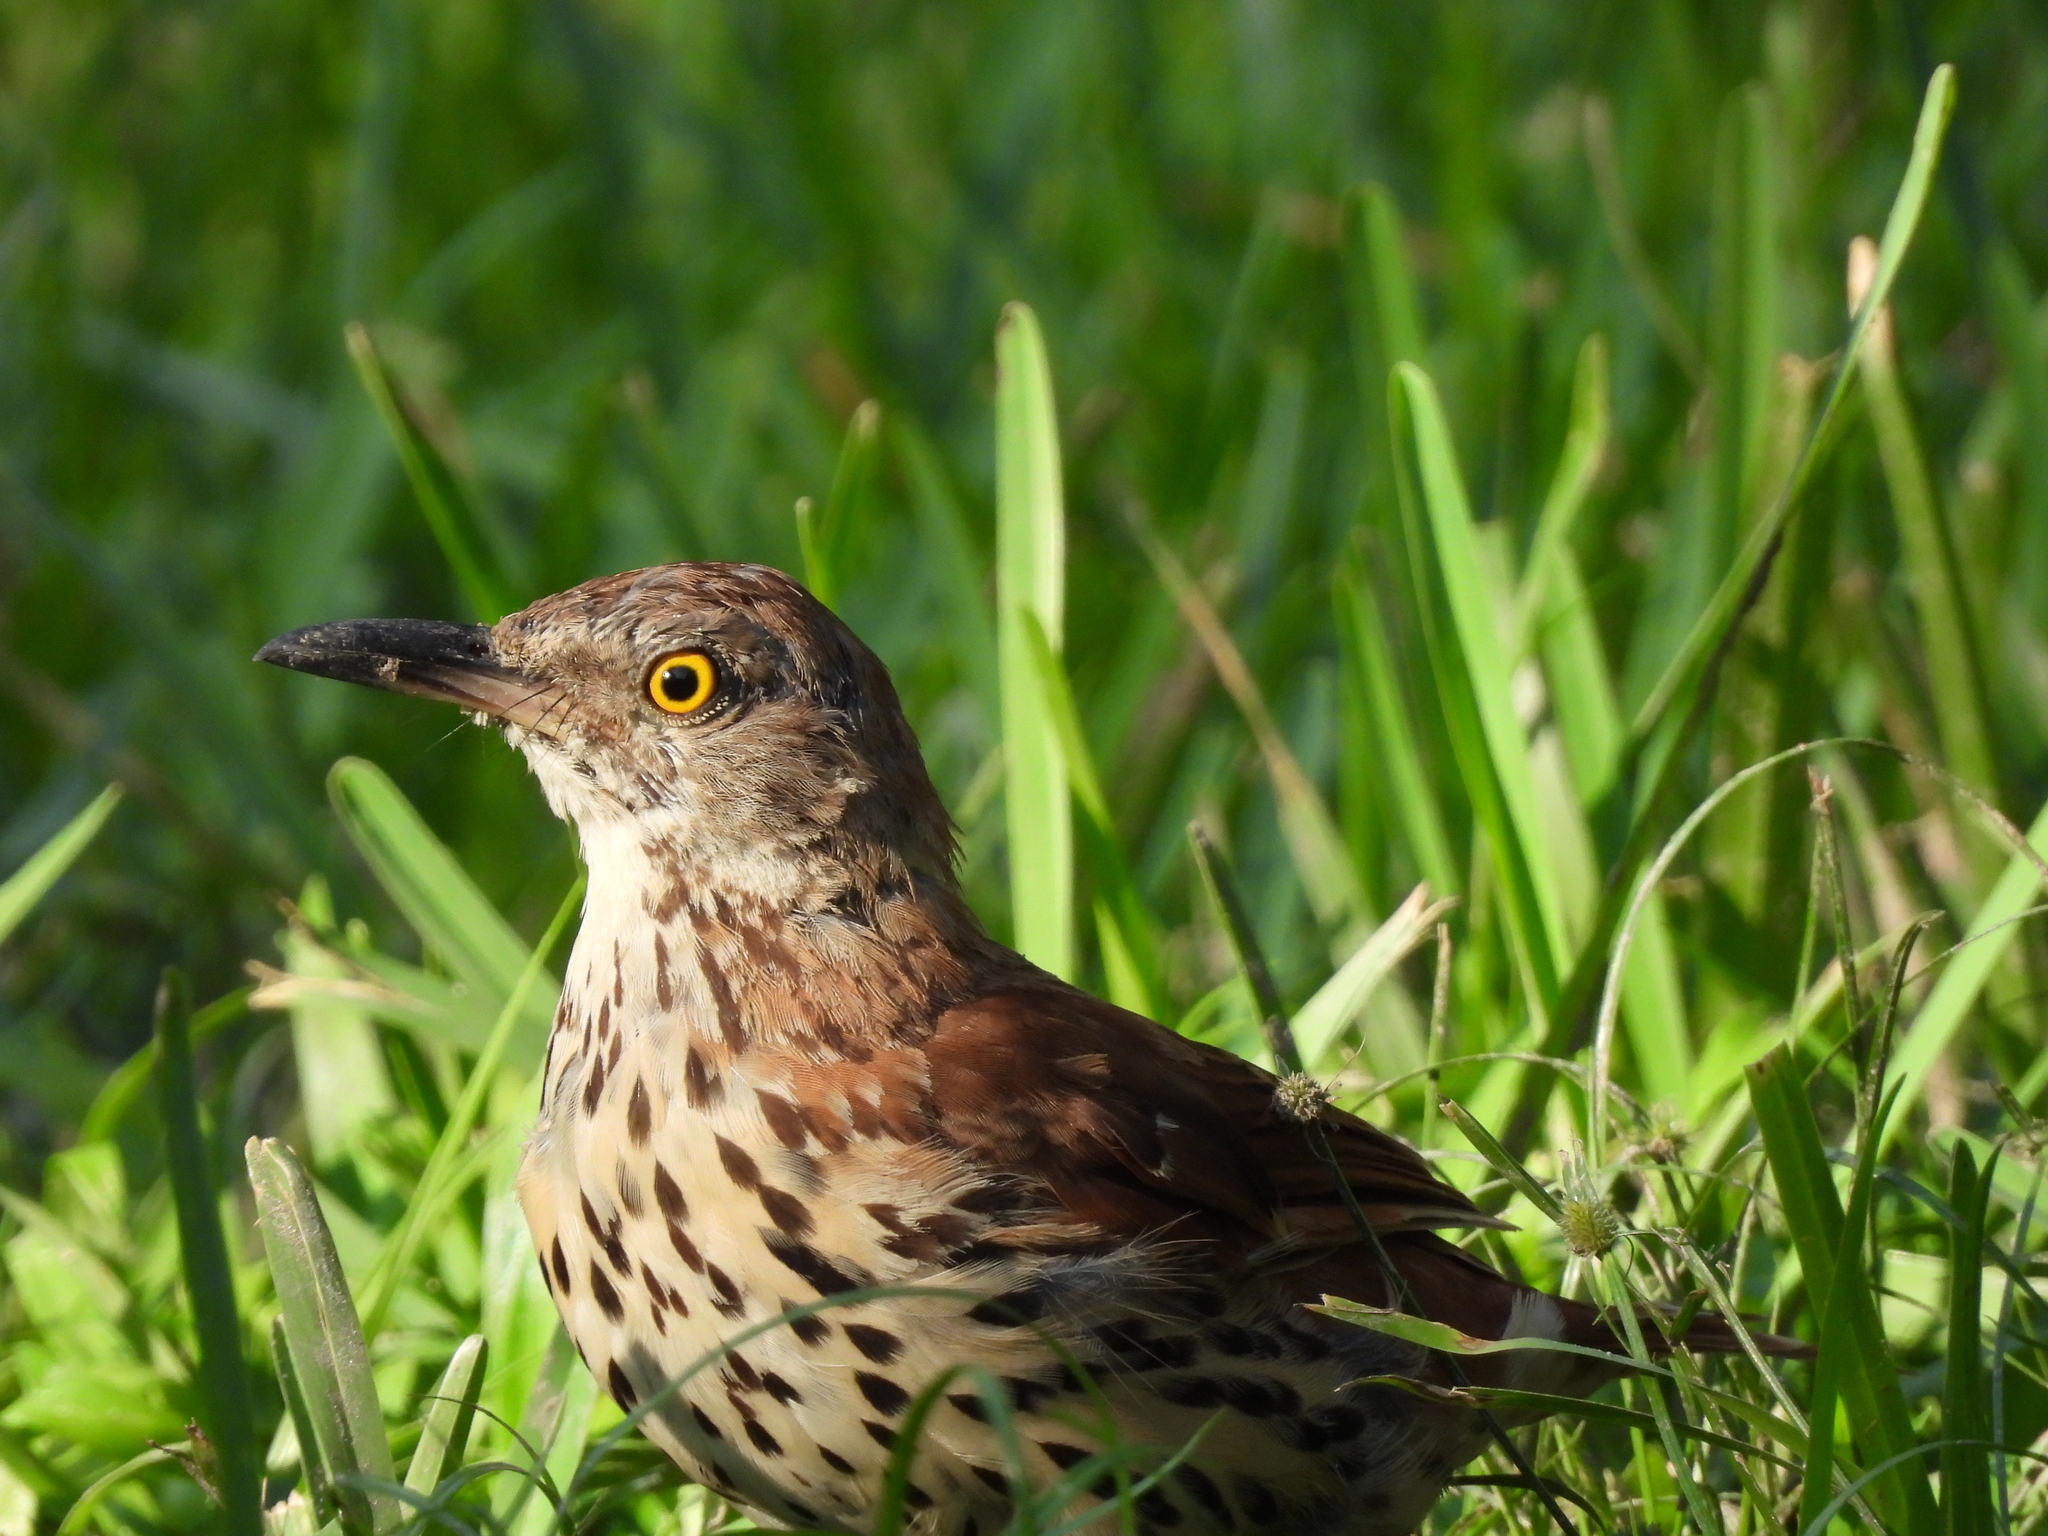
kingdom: Animalia
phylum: Chordata
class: Aves
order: Passeriformes
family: Mimidae
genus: Toxostoma
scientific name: Toxostoma rufum
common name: Brown thrasher
